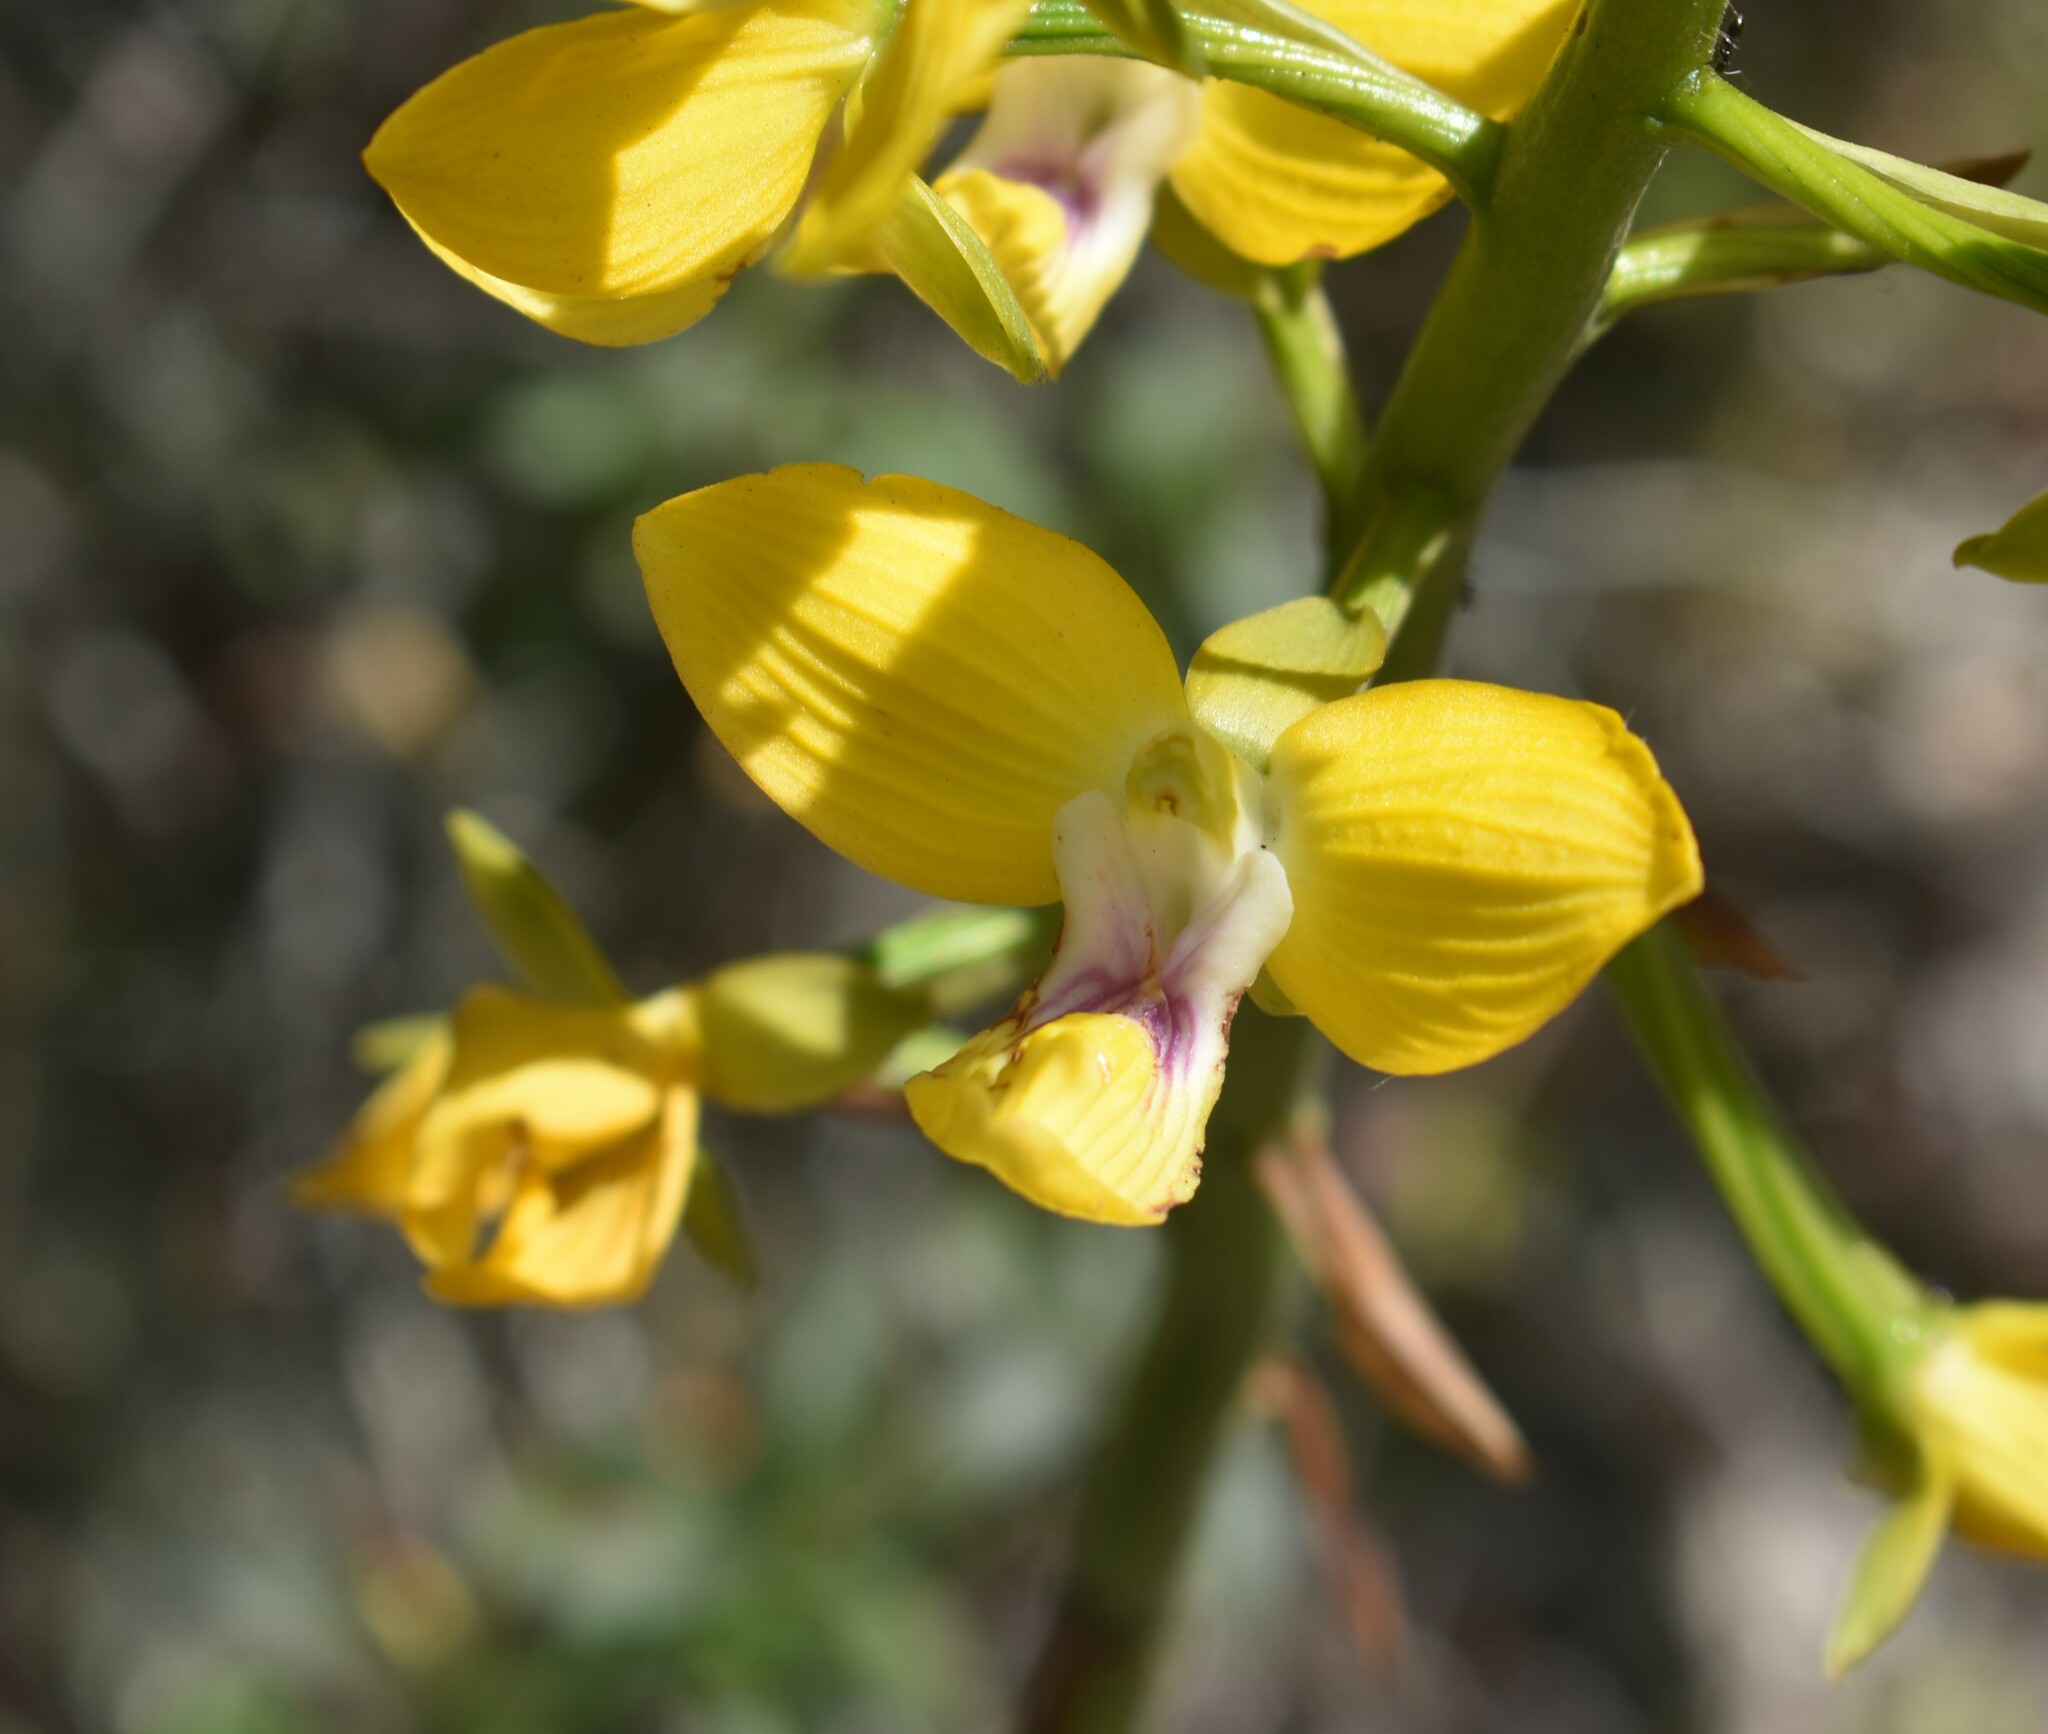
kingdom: Plantae
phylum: Tracheophyta
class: Liliopsida
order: Asparagales
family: Orchidaceae
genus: Eulophia
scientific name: Eulophia speciosa
